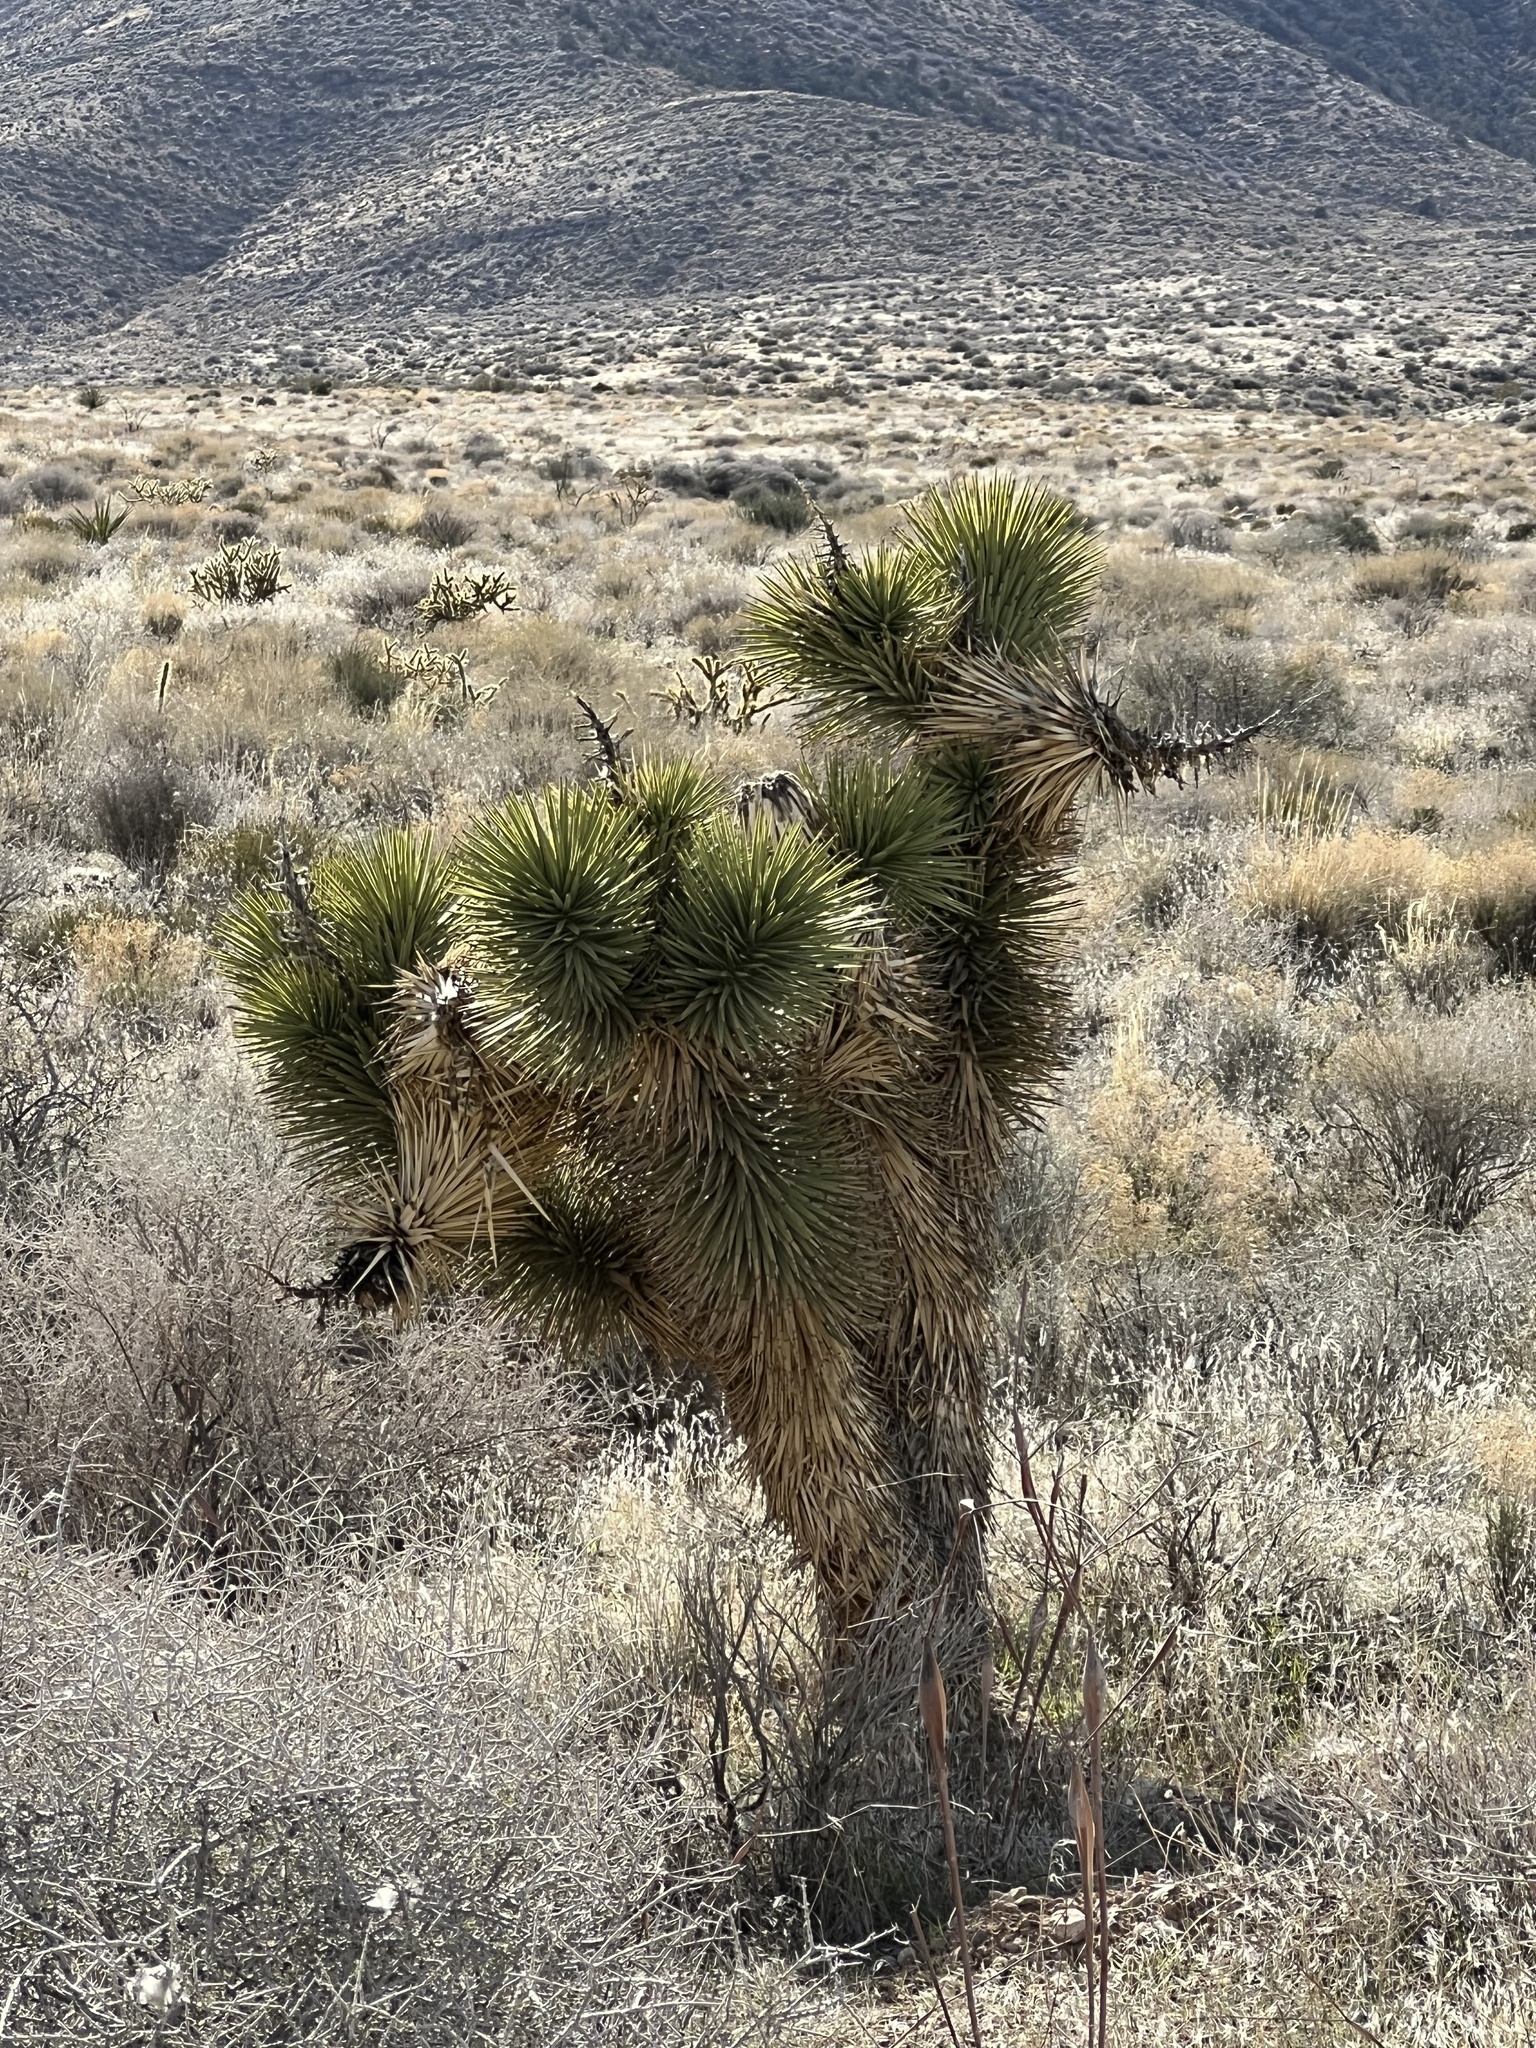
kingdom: Plantae
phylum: Tracheophyta
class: Liliopsida
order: Asparagales
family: Asparagaceae
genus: Yucca
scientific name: Yucca brevifolia
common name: Joshua tree
